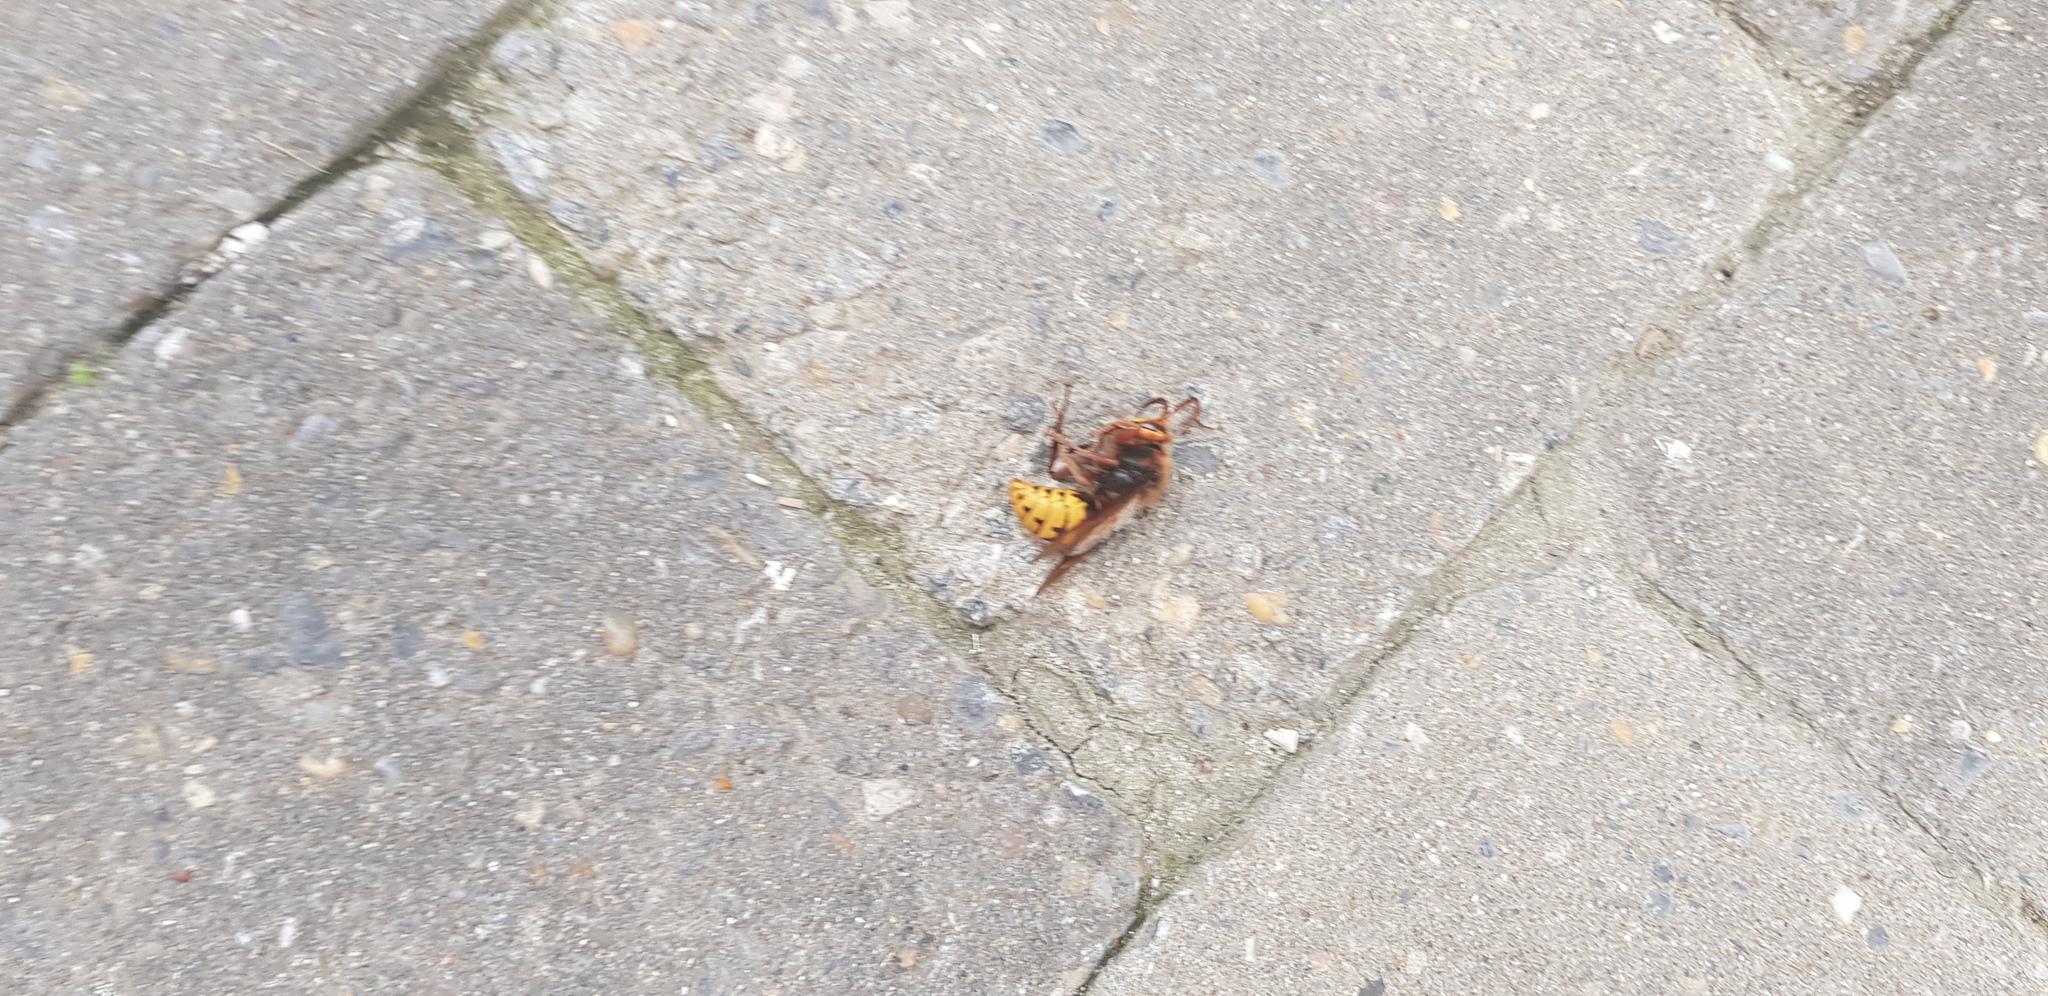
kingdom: Animalia
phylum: Arthropoda
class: Insecta
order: Hymenoptera
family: Vespidae
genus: Vespa
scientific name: Vespa crabro
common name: Hornet
